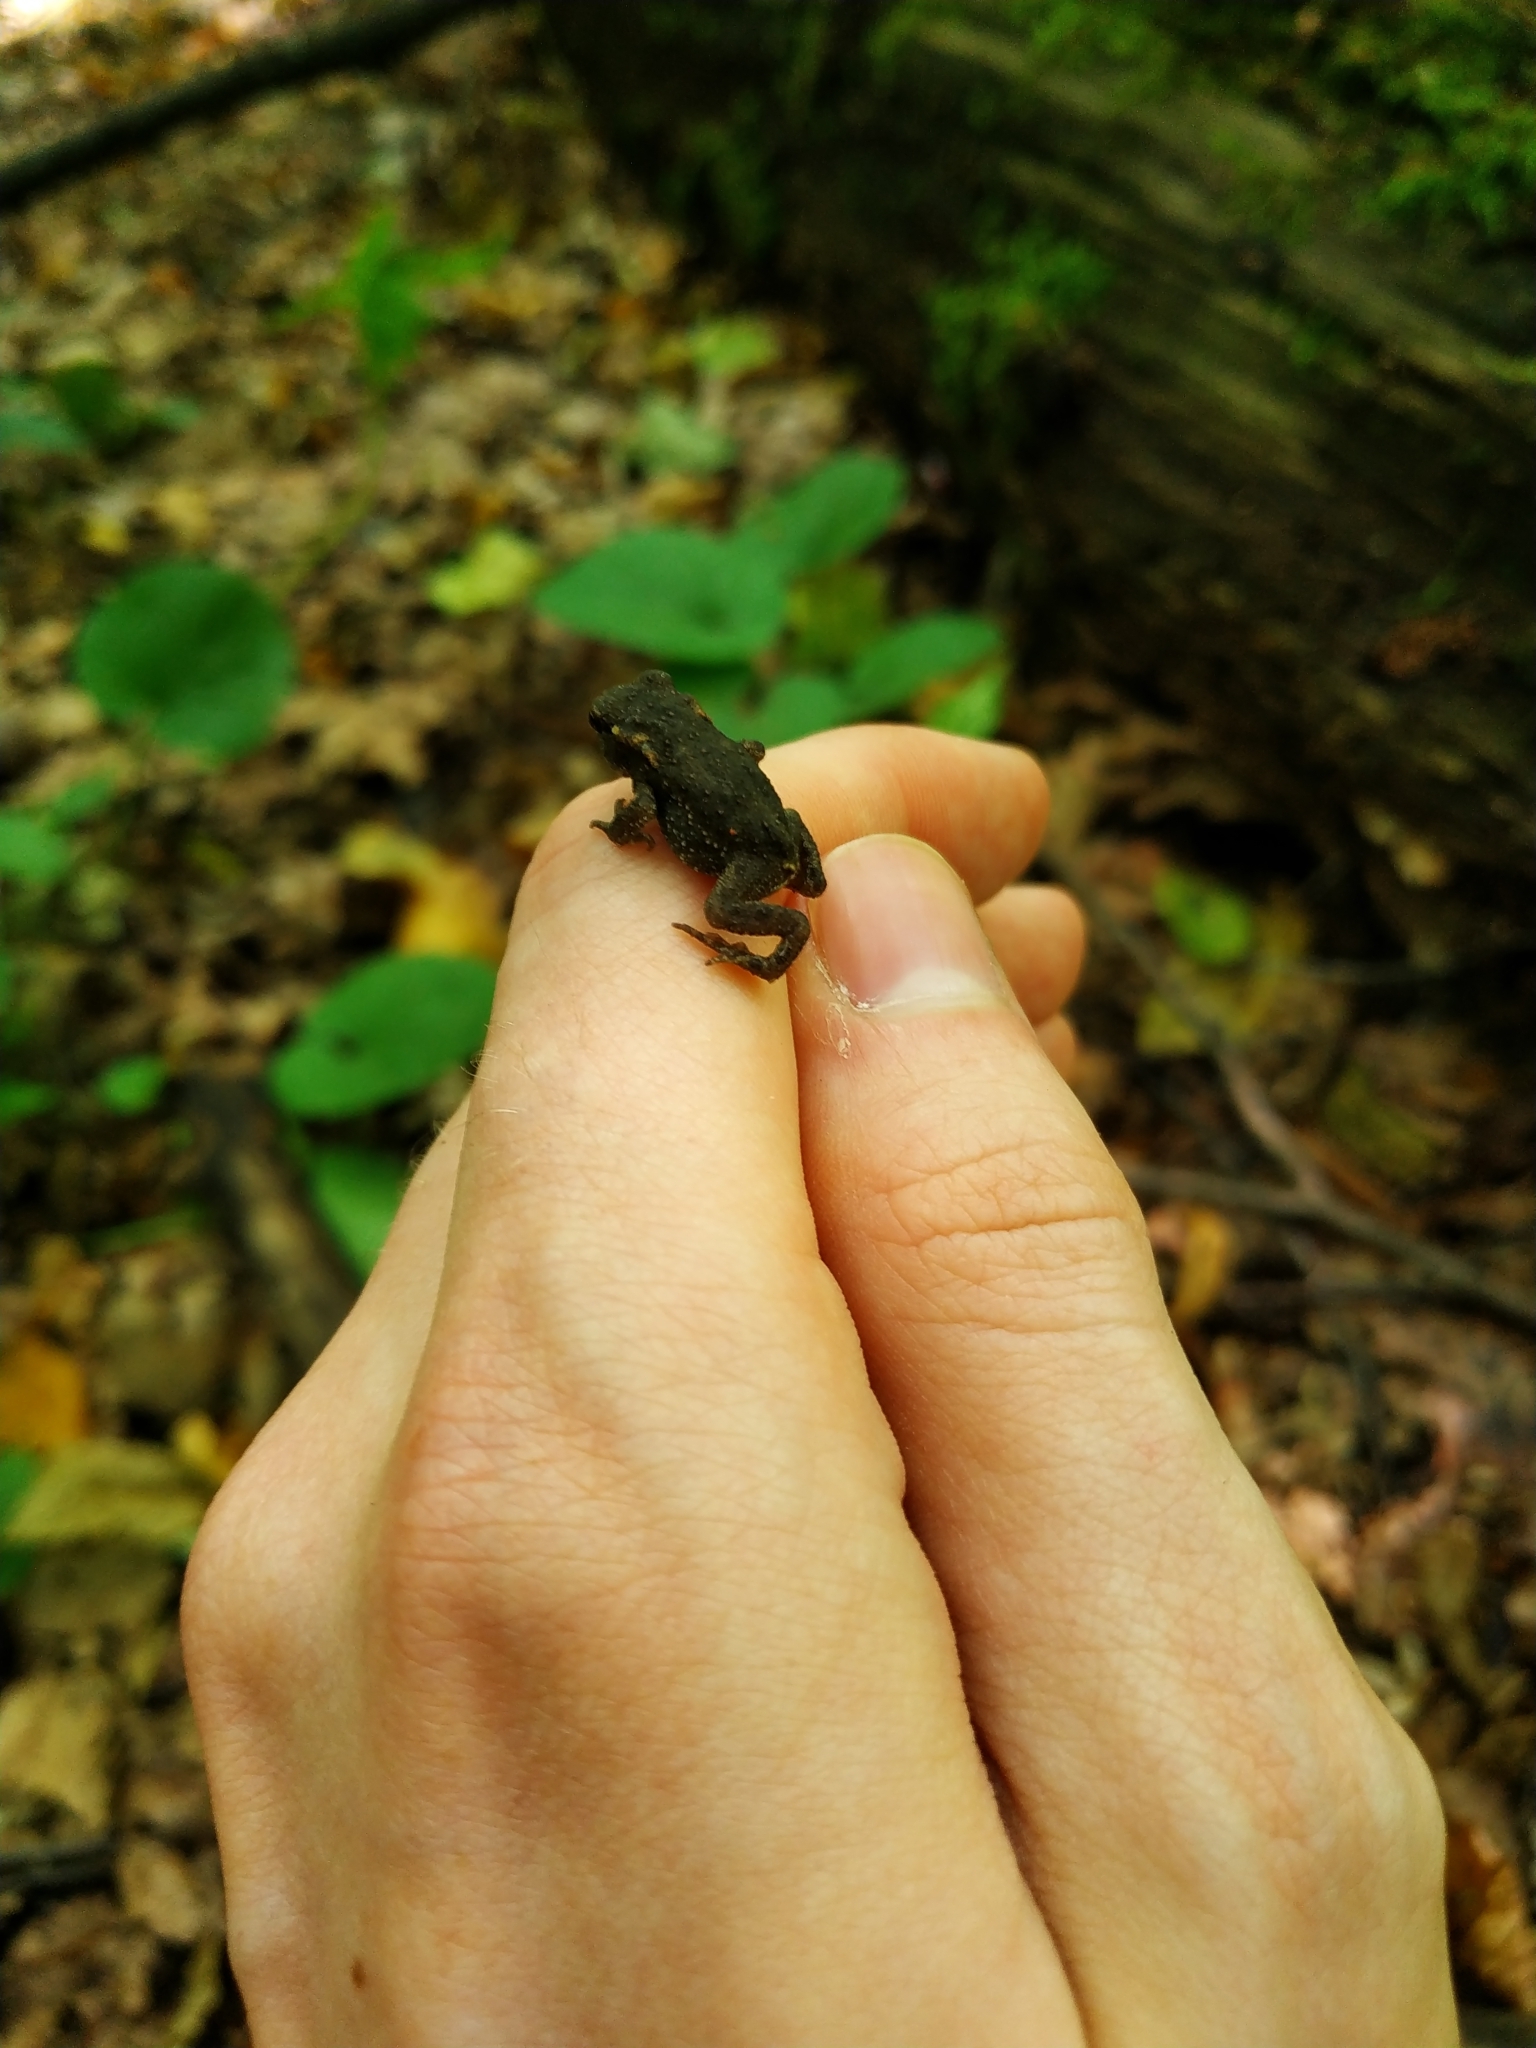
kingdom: Animalia
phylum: Chordata
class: Amphibia
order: Anura
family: Bufonidae
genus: Bufo
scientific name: Bufo bufo
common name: Common toad
